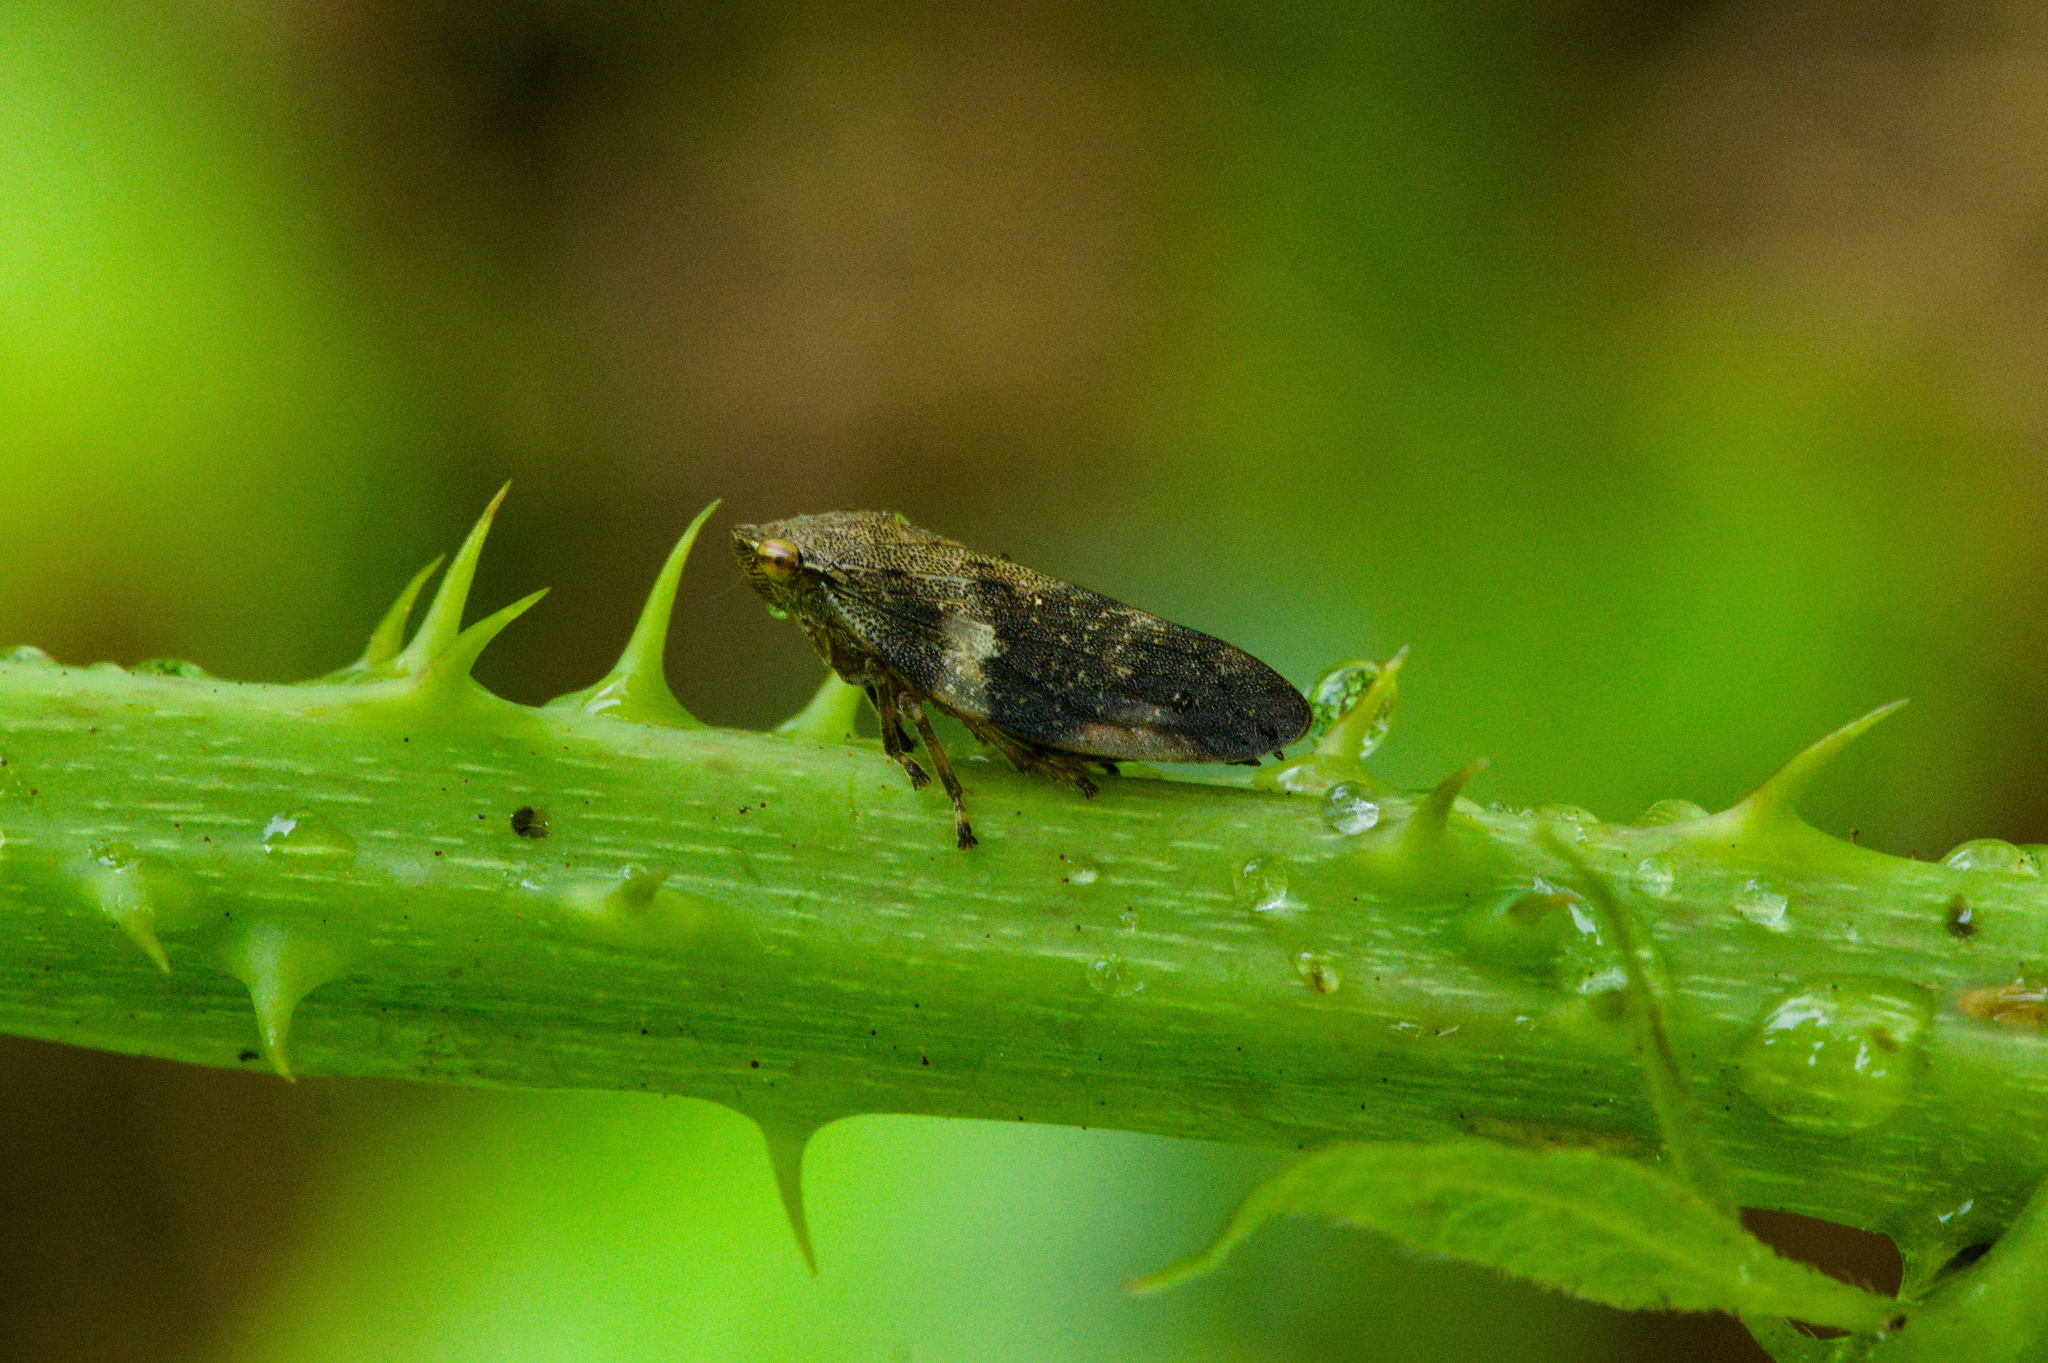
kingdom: Animalia
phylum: Arthropoda
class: Insecta
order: Hemiptera
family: Aphrophoridae
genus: Aphrophora
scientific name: Aphrophora alni
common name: European alder spittlebug
